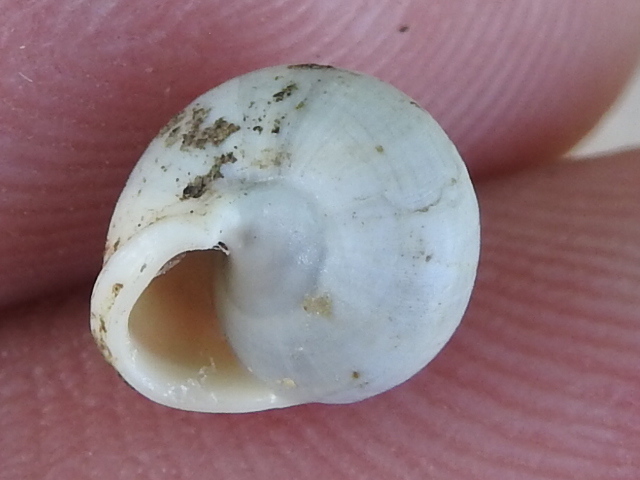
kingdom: Animalia
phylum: Mollusca
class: Gastropoda
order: Cycloneritida
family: Helicinidae
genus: Helicina
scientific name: Helicina orbiculata
